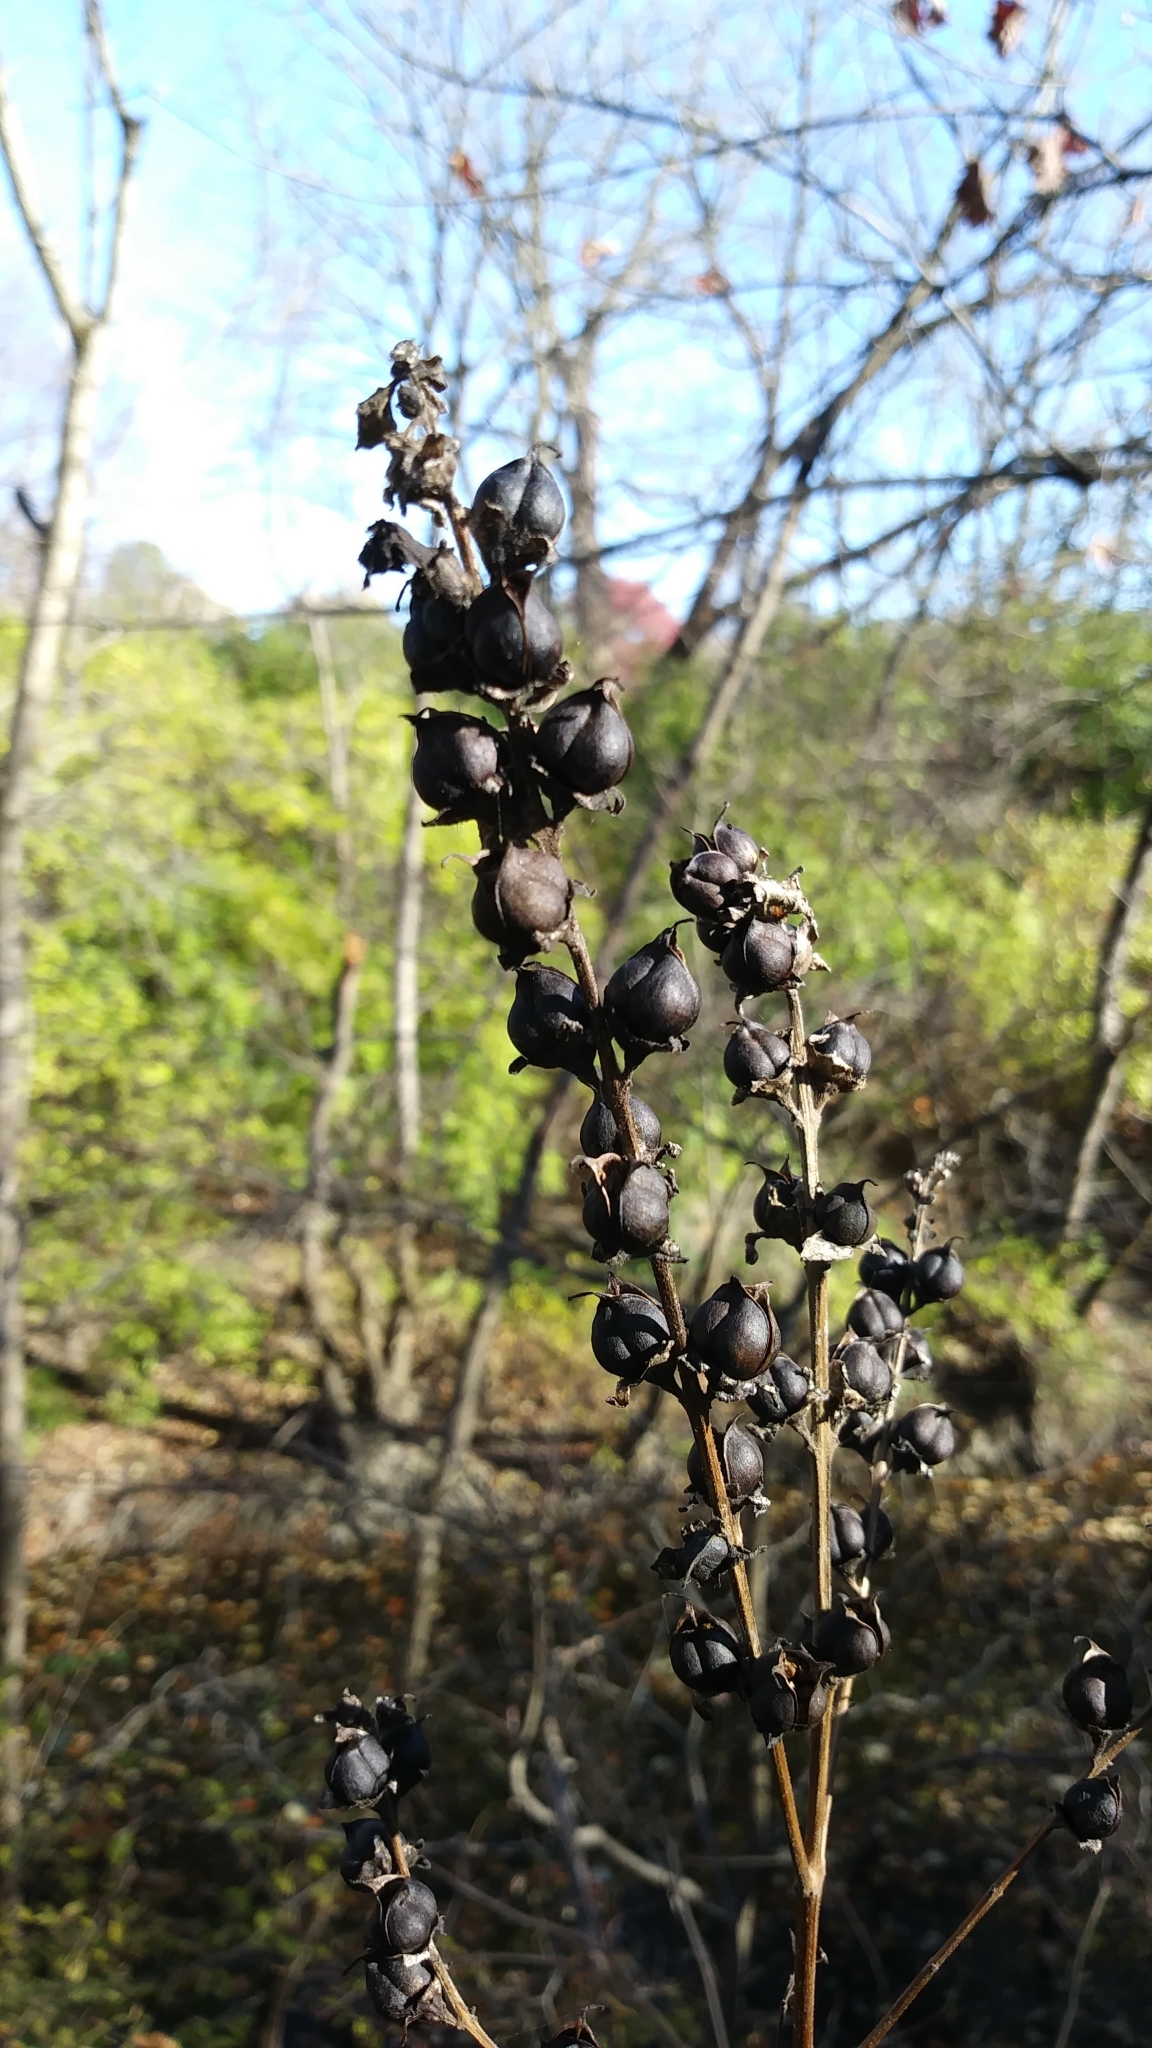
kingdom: Plantae
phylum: Tracheophyta
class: Magnoliopsida
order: Lamiales
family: Orobanchaceae
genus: Dasistoma
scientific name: Dasistoma macrophyllum
